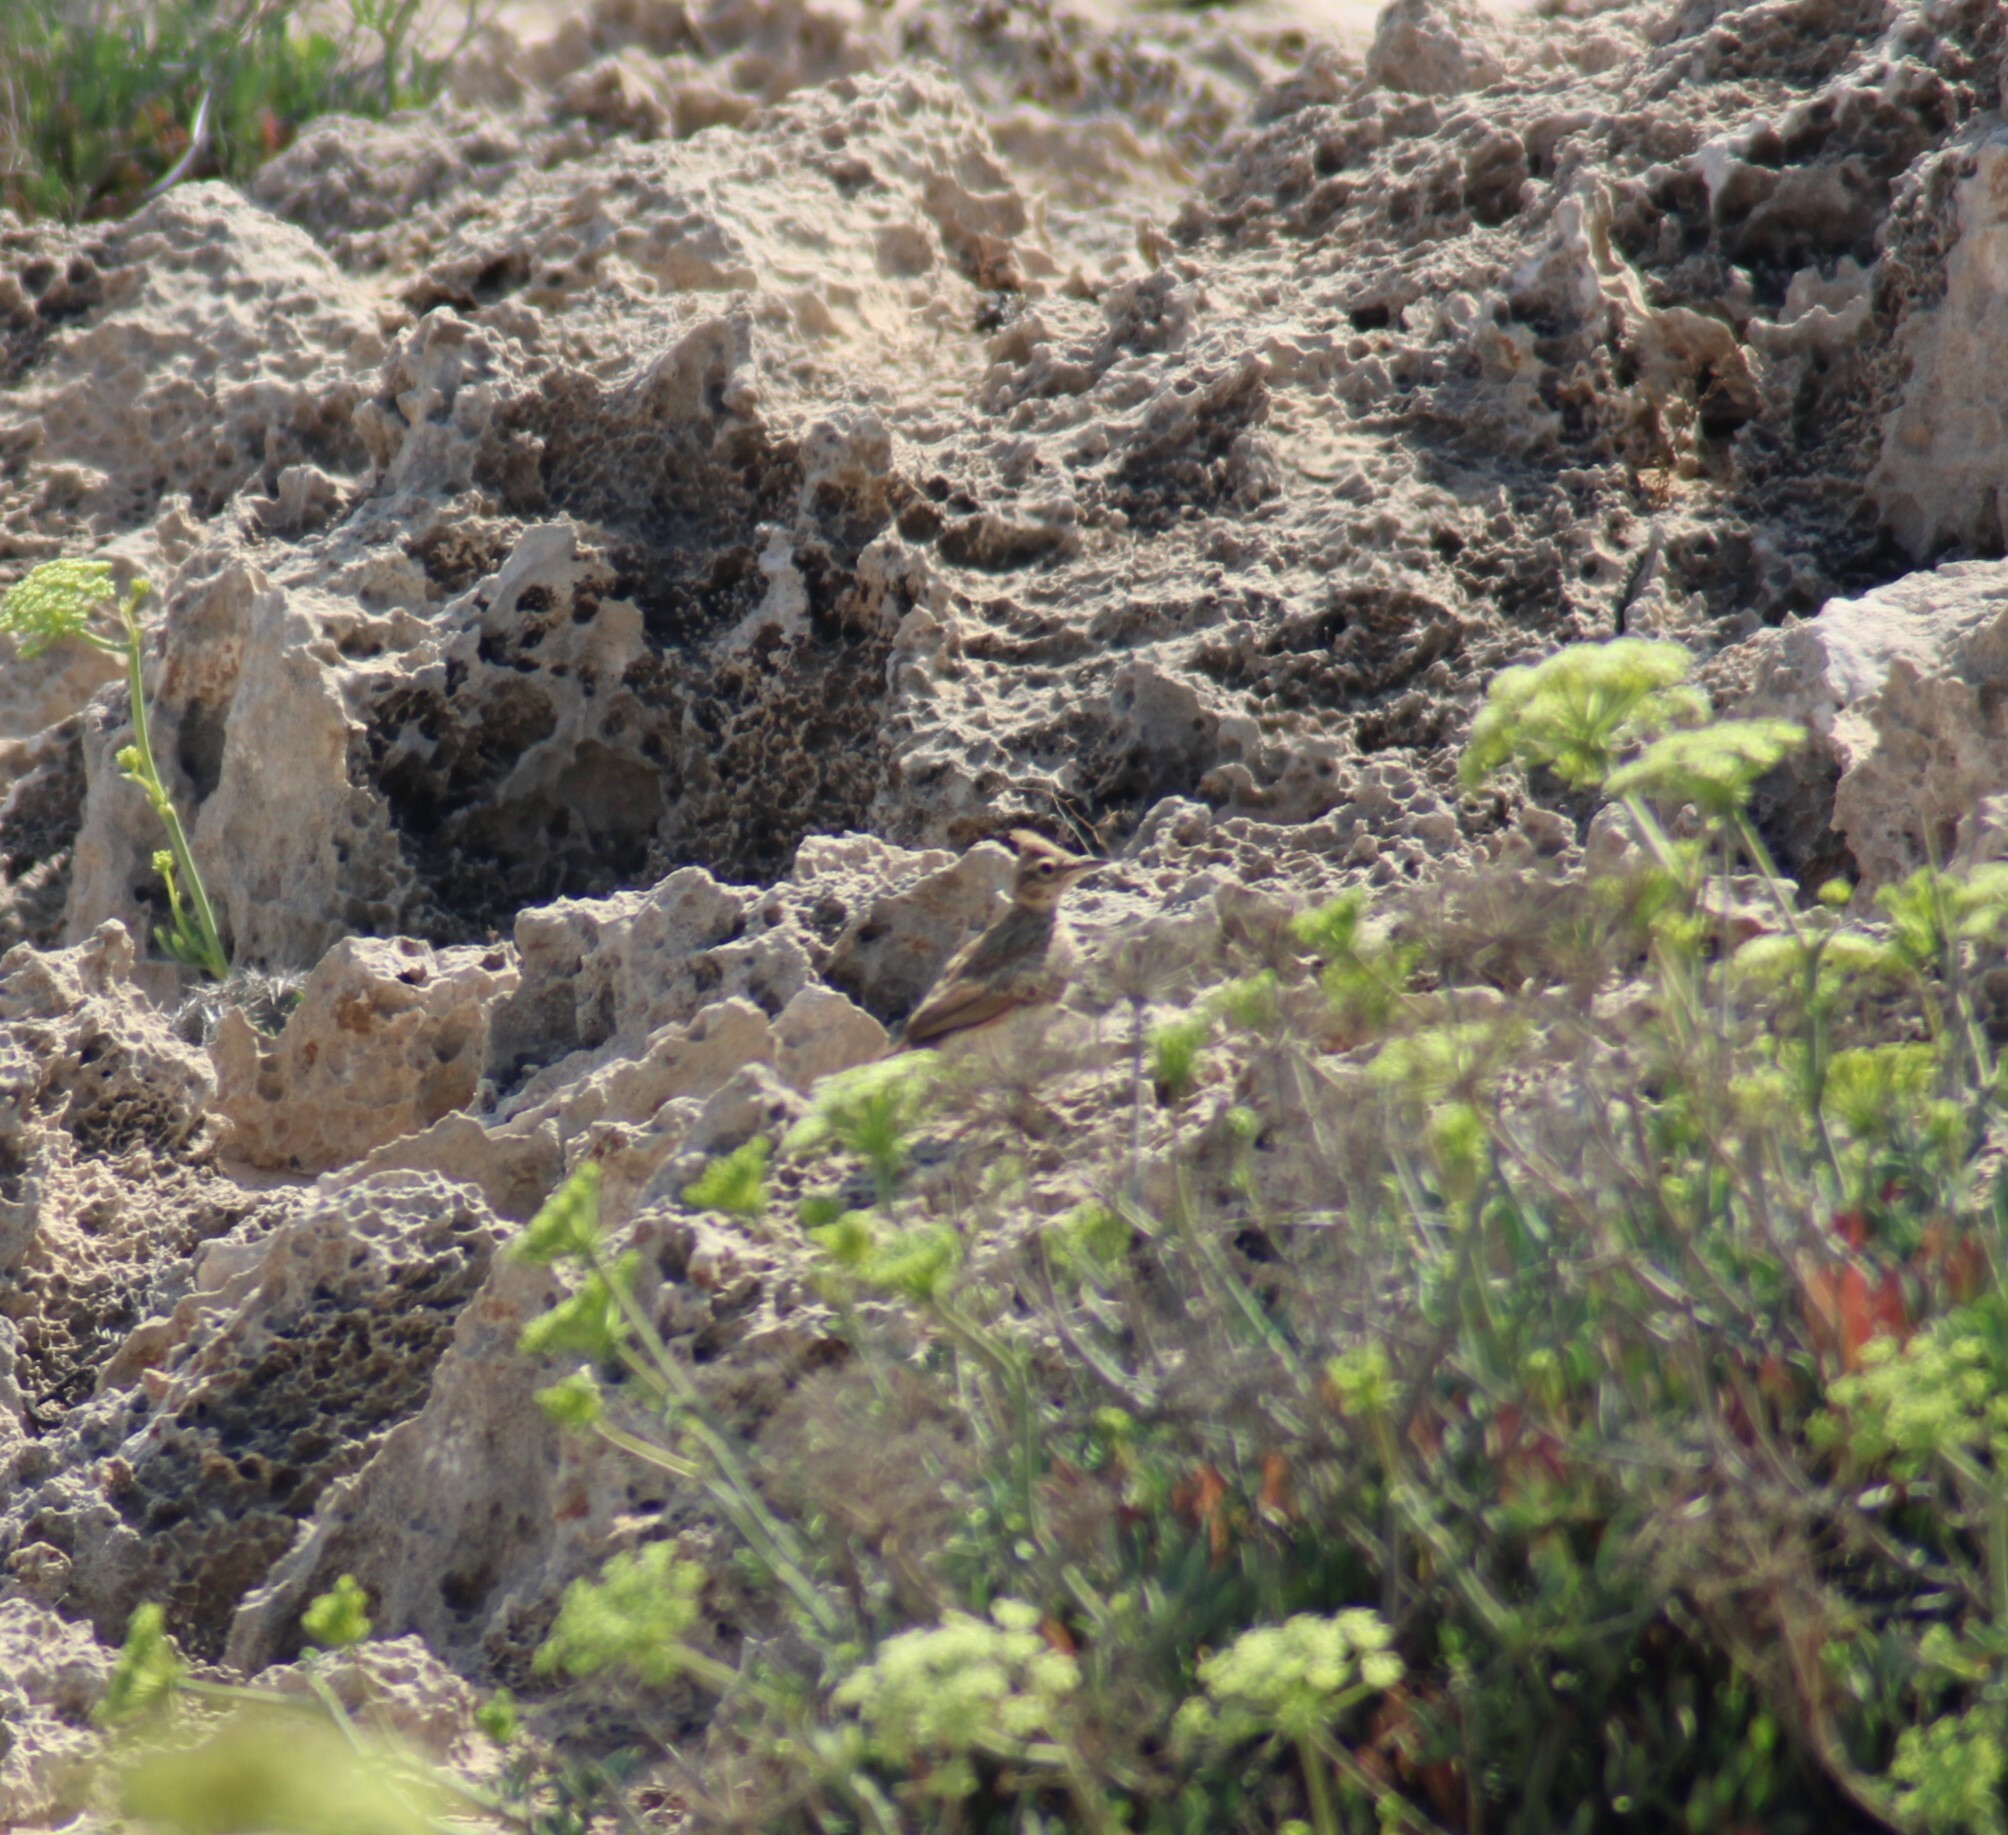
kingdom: Animalia
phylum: Chordata
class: Aves
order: Passeriformes
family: Alaudidae
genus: Galerida
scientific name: Galerida cristata
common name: Crested lark
